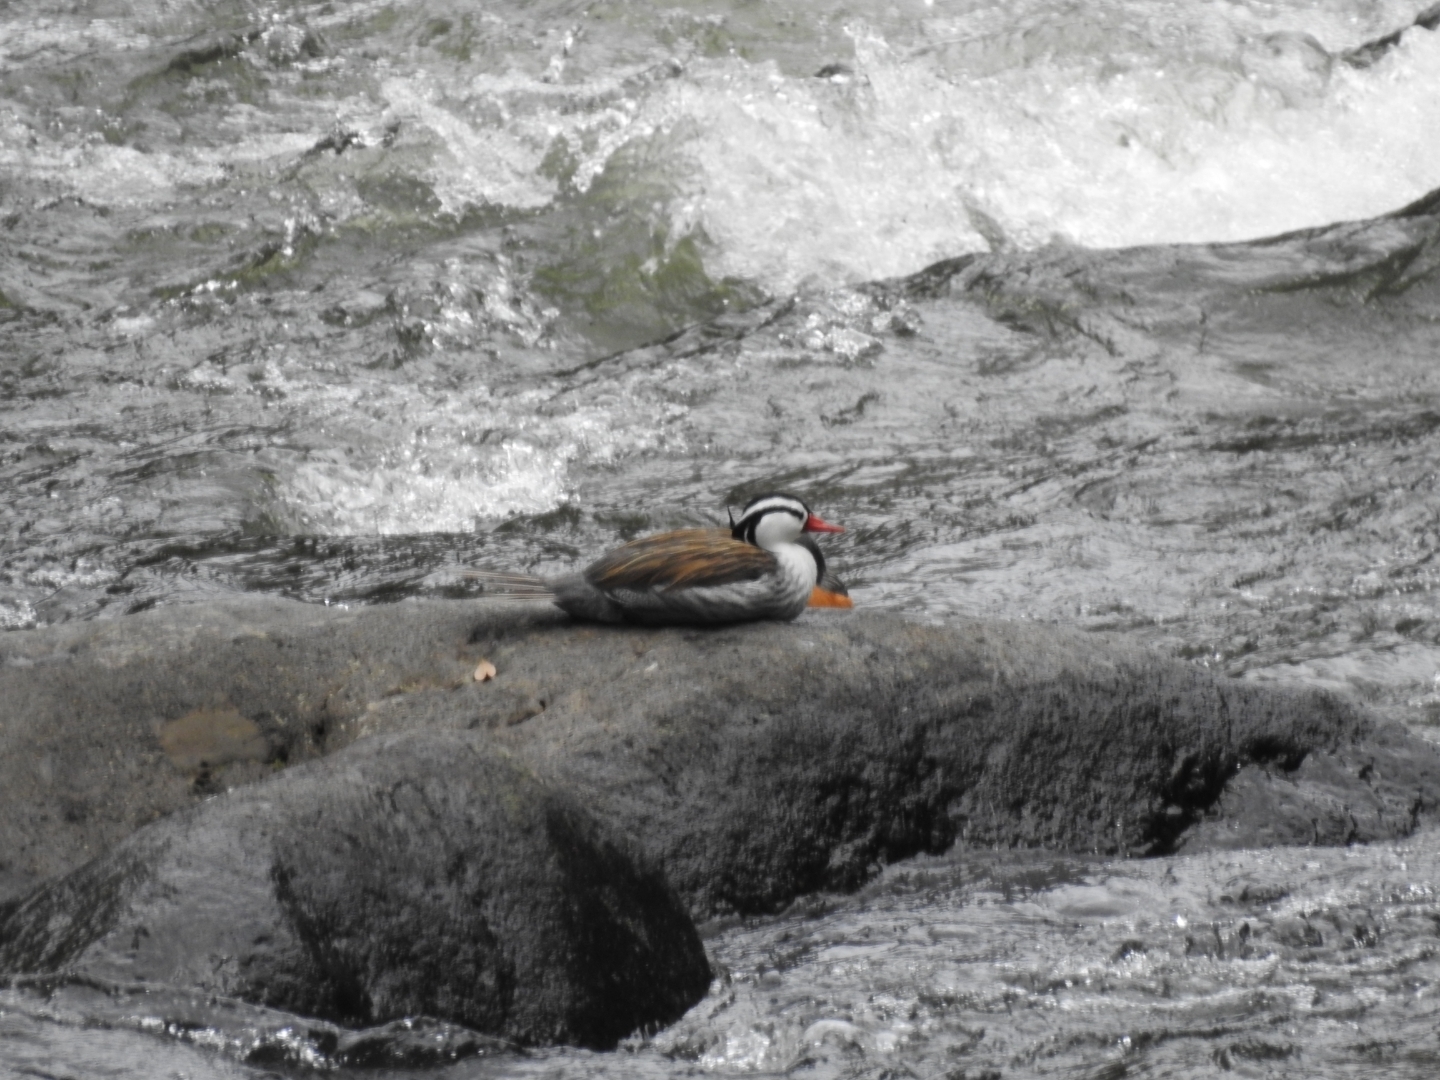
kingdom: Animalia
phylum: Chordata
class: Aves
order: Anseriformes
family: Anatidae
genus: Merganetta
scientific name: Merganetta armata
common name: Torrent duck
